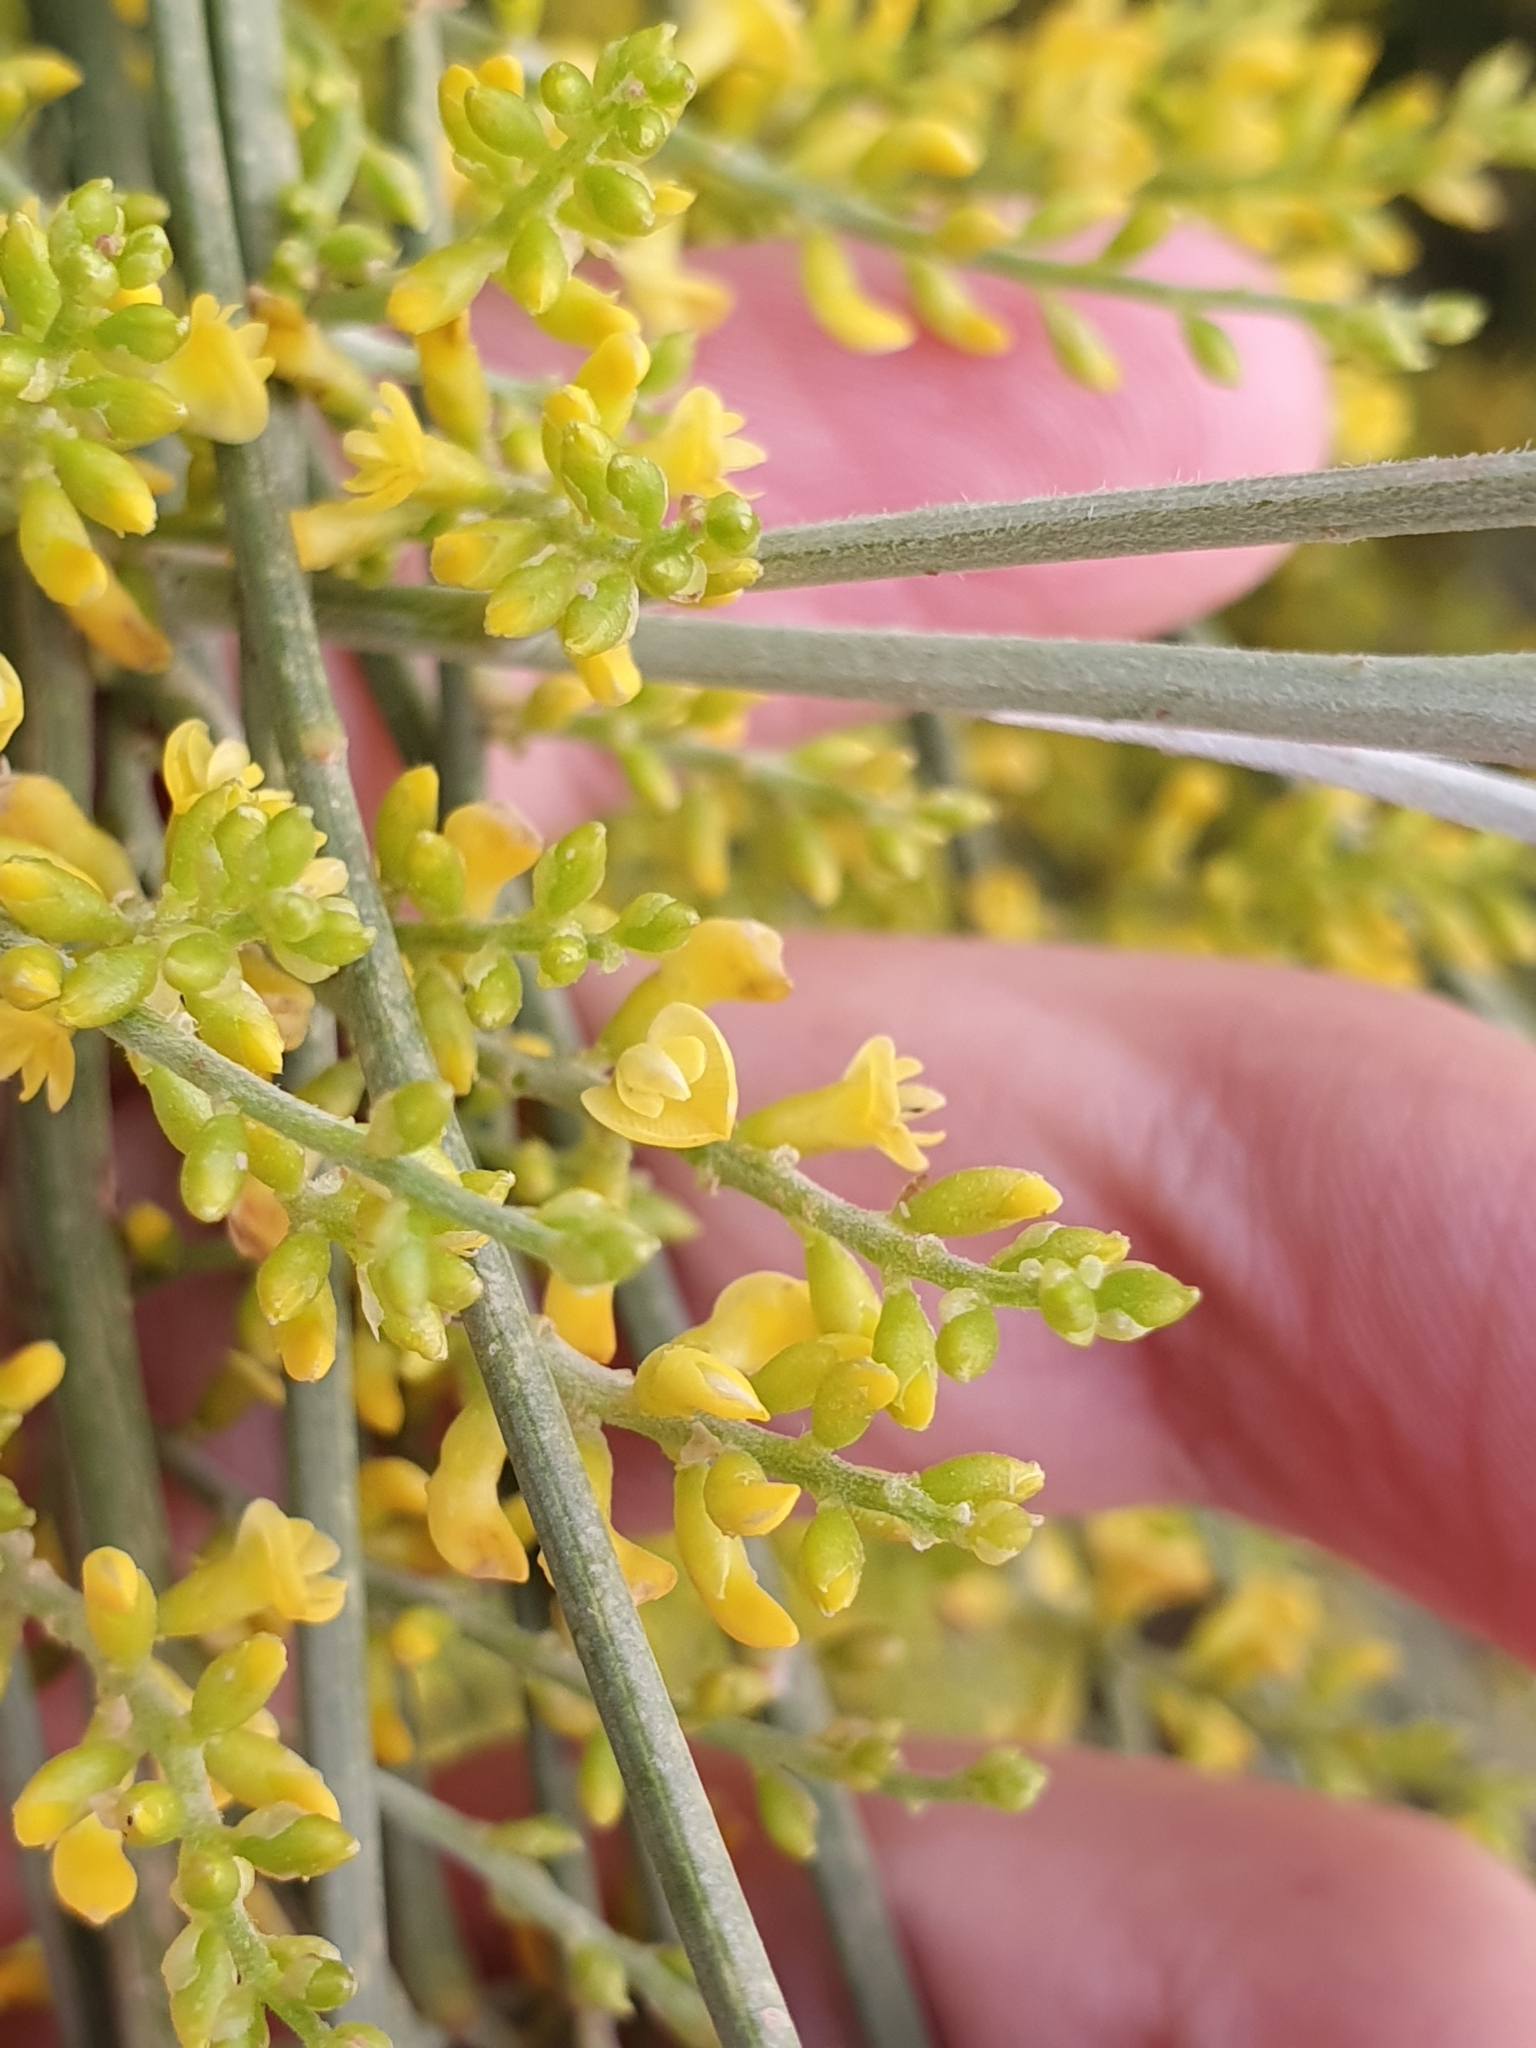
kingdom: Plantae
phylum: Tracheophyta
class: Magnoliopsida
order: Fabales
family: Fabaceae
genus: Retama
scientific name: Retama sphaerocarpa
